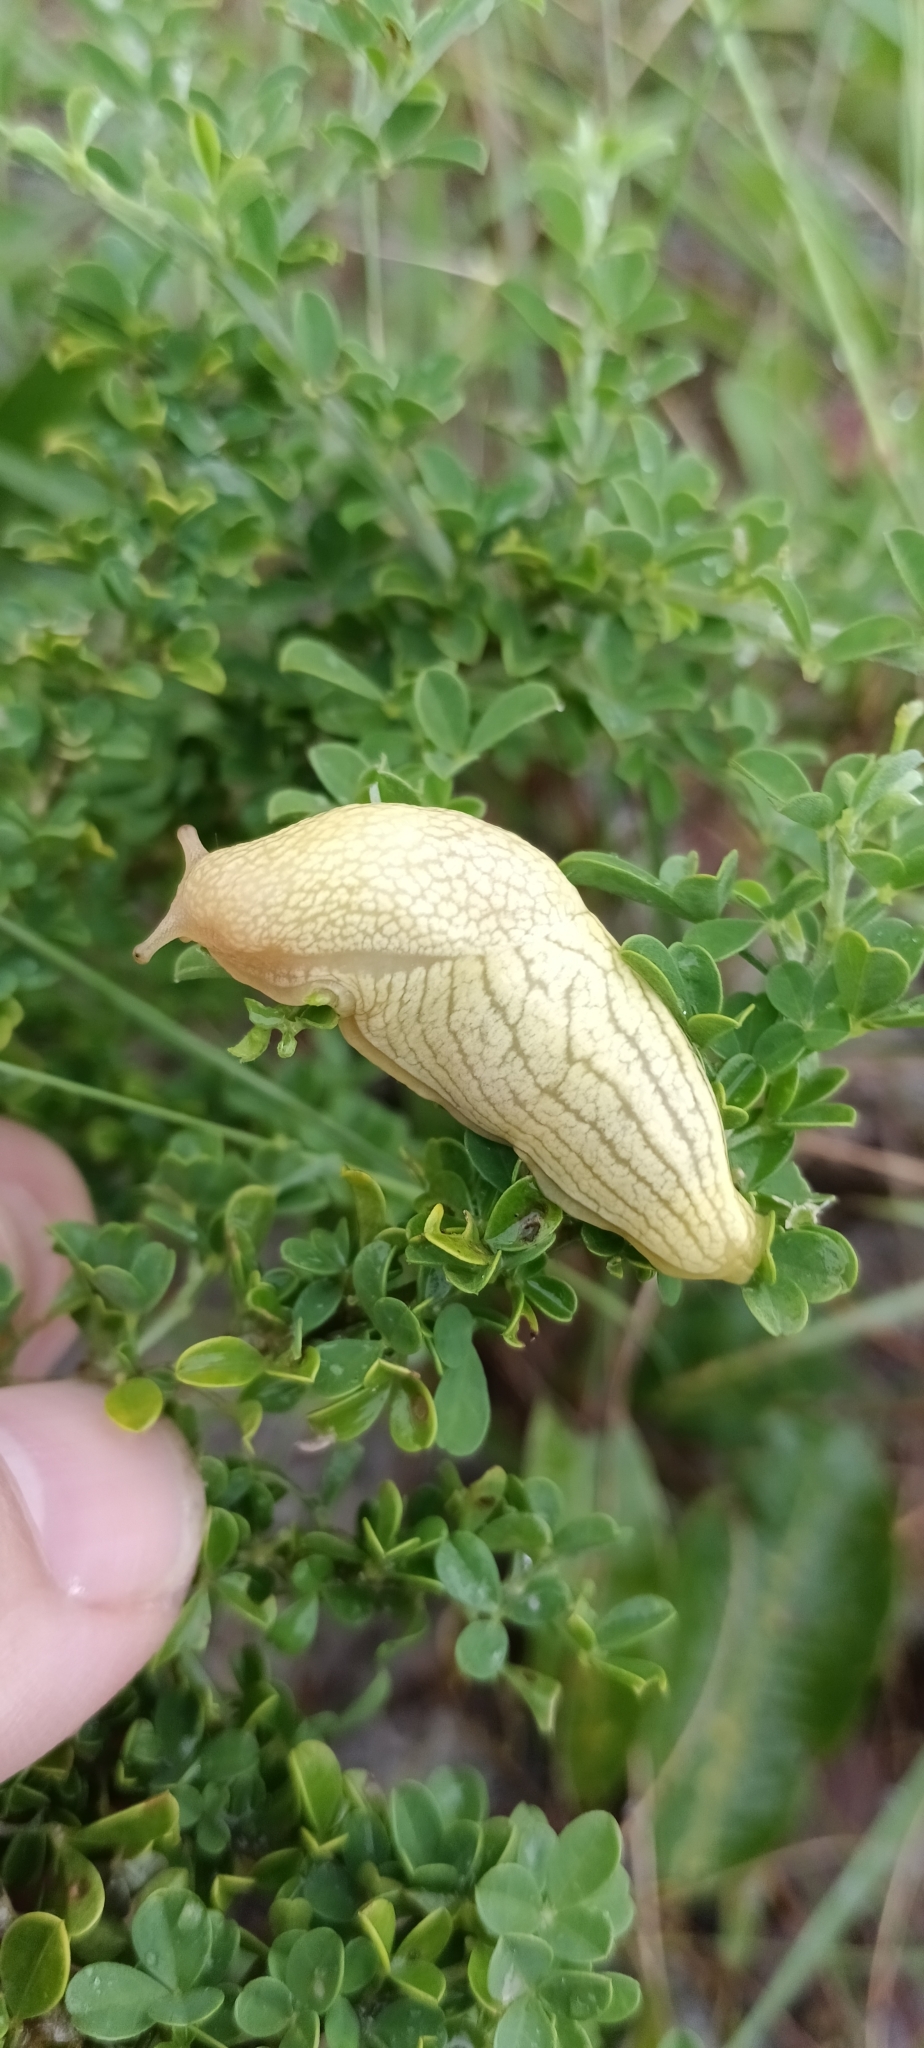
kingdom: Animalia
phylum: Mollusca
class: Gastropoda
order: Stylommatophora
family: Urocyclidae
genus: Elisolimax
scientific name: Elisolimax flavescens
